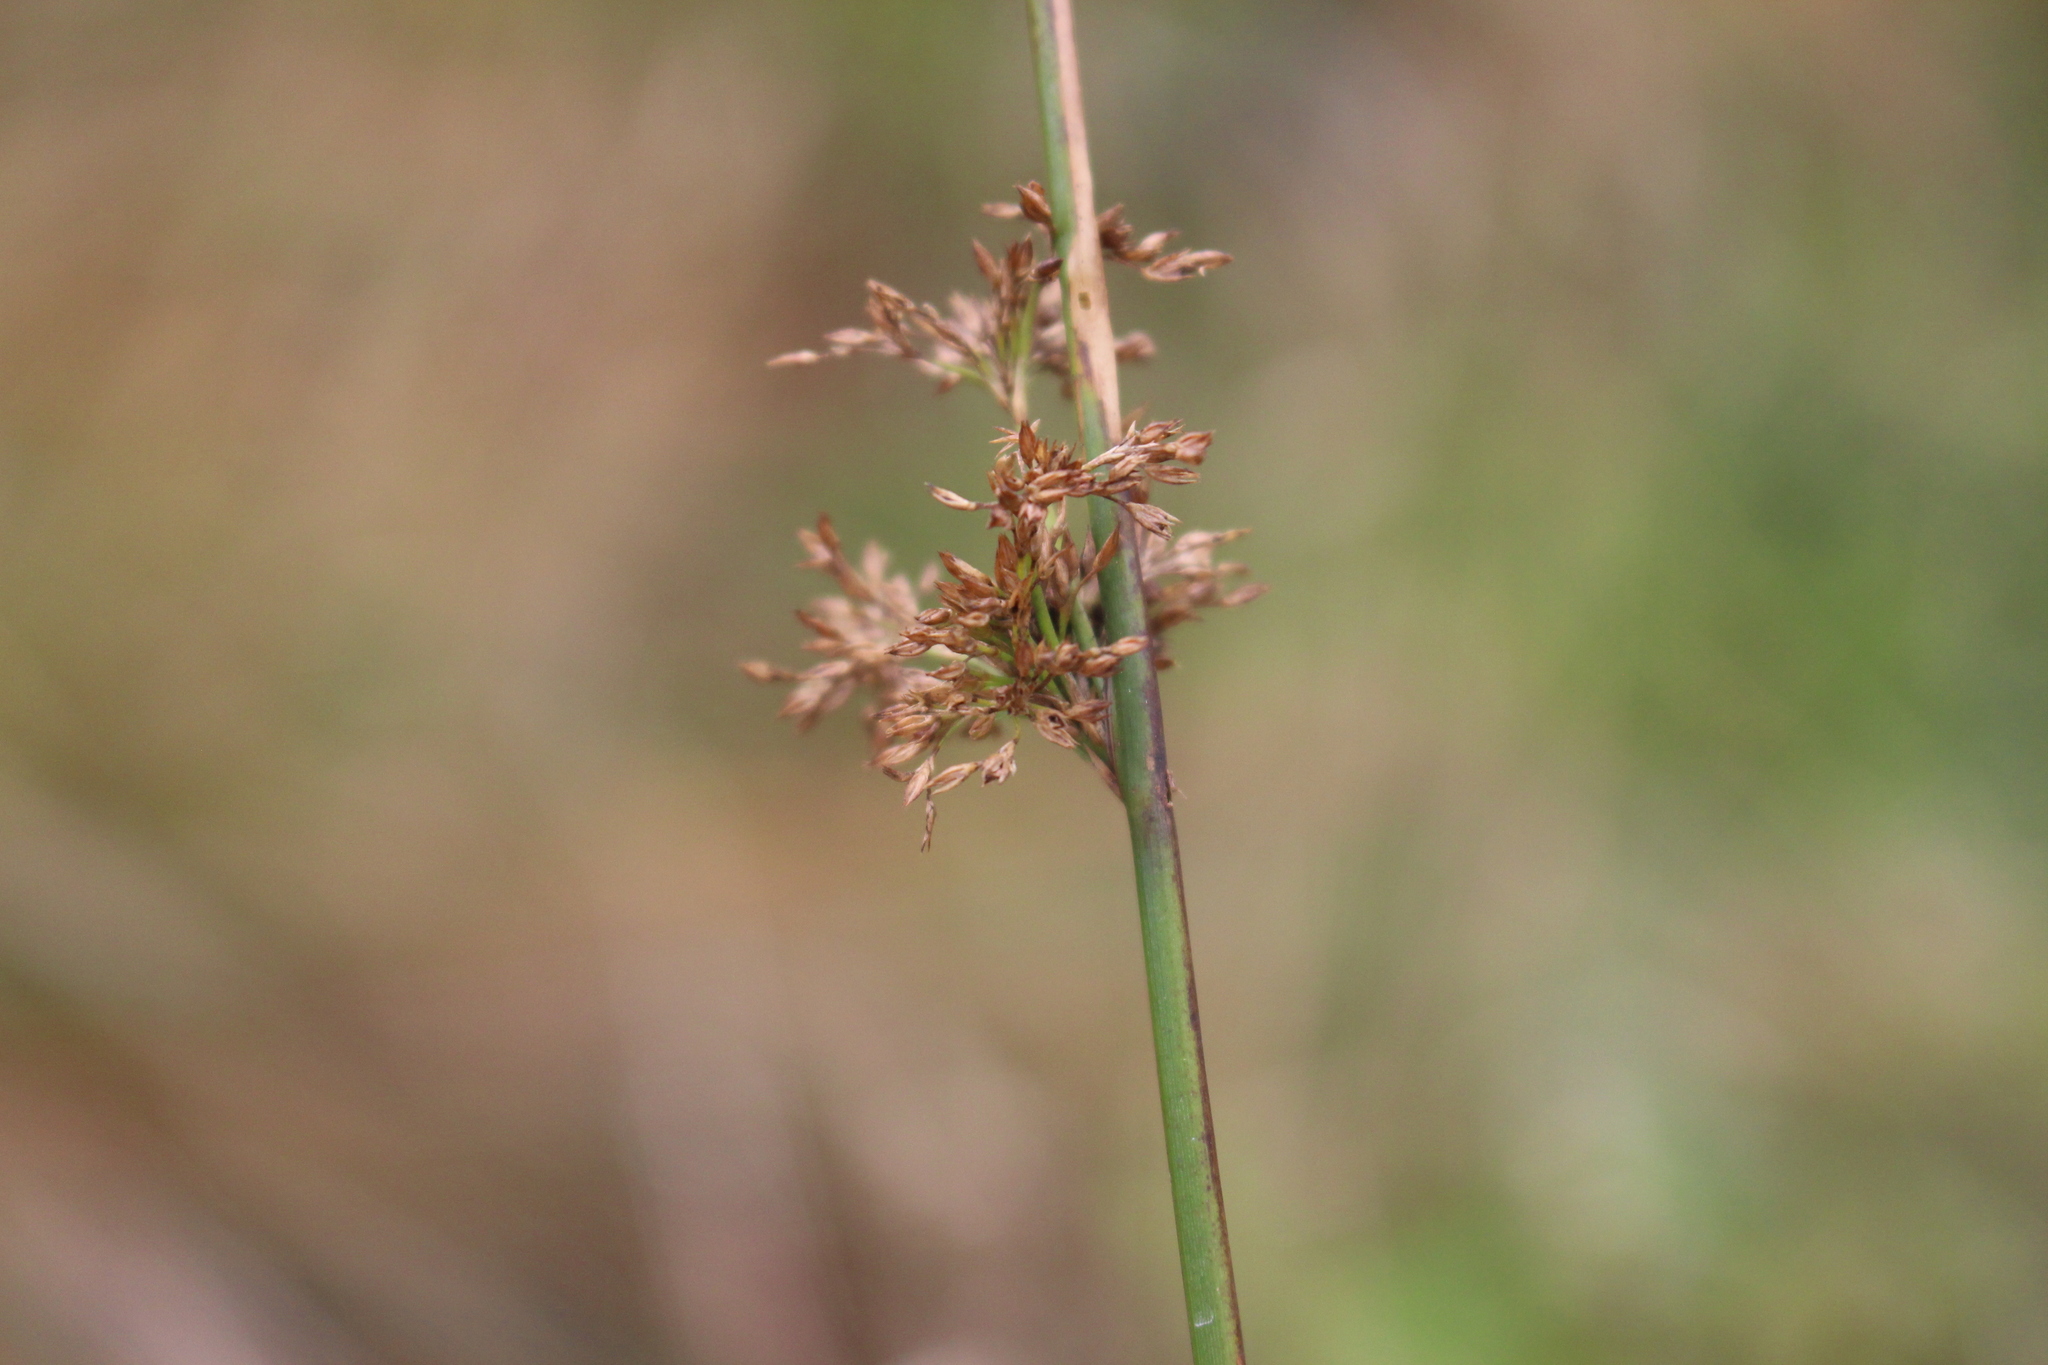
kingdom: Plantae
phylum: Tracheophyta
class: Liliopsida
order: Poales
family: Juncaceae
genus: Juncus
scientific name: Juncus effusus
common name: Soft rush
